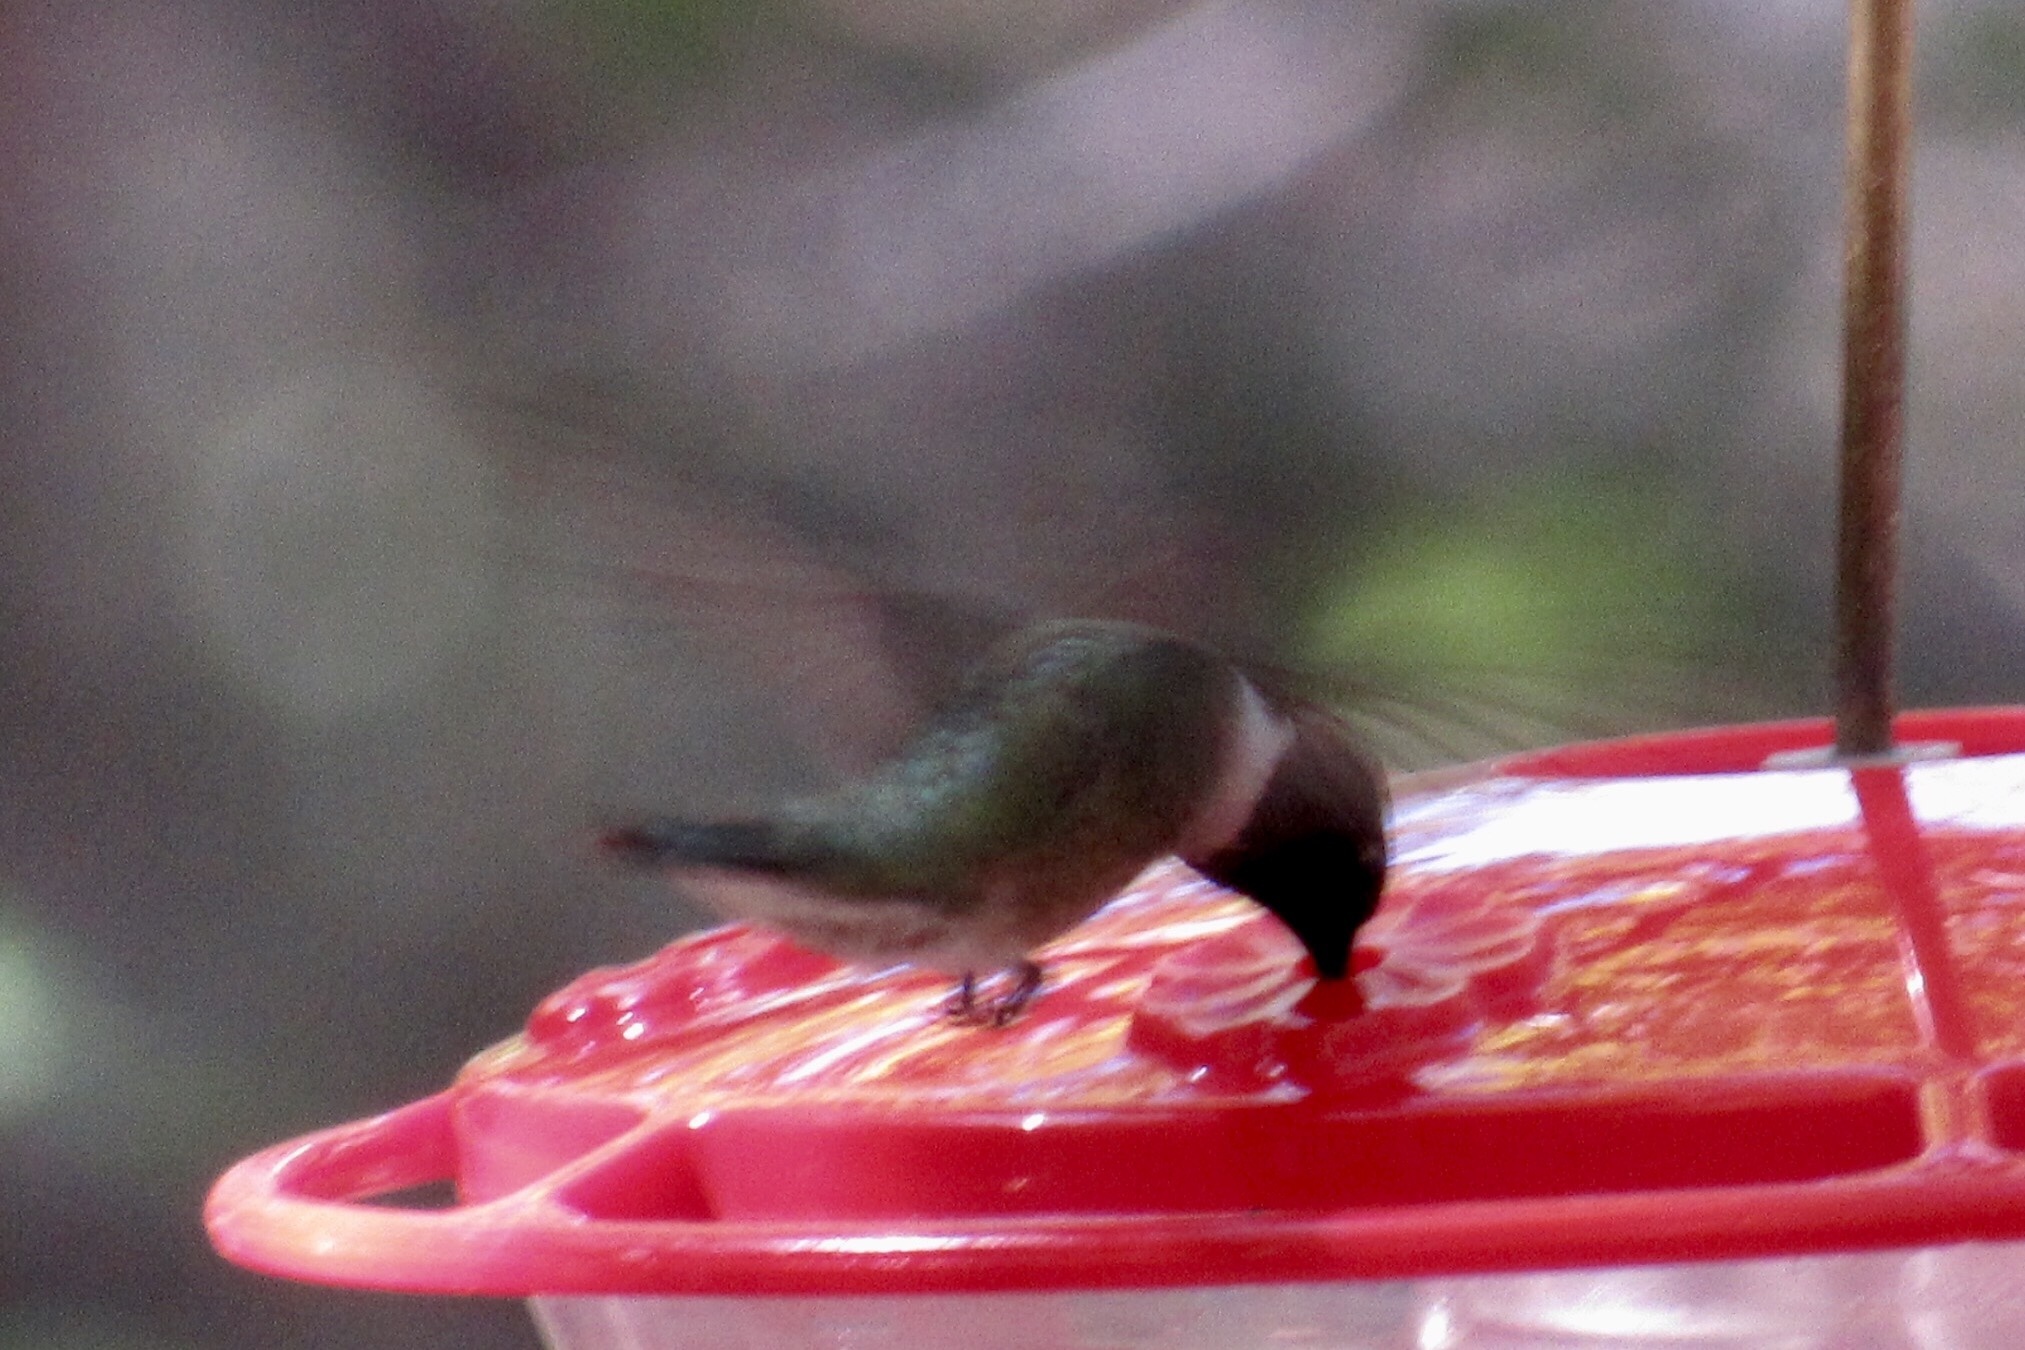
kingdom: Animalia
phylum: Chordata
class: Aves
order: Apodiformes
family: Trochilidae
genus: Archilochus
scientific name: Archilochus alexandri
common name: Black-chinned hummingbird
